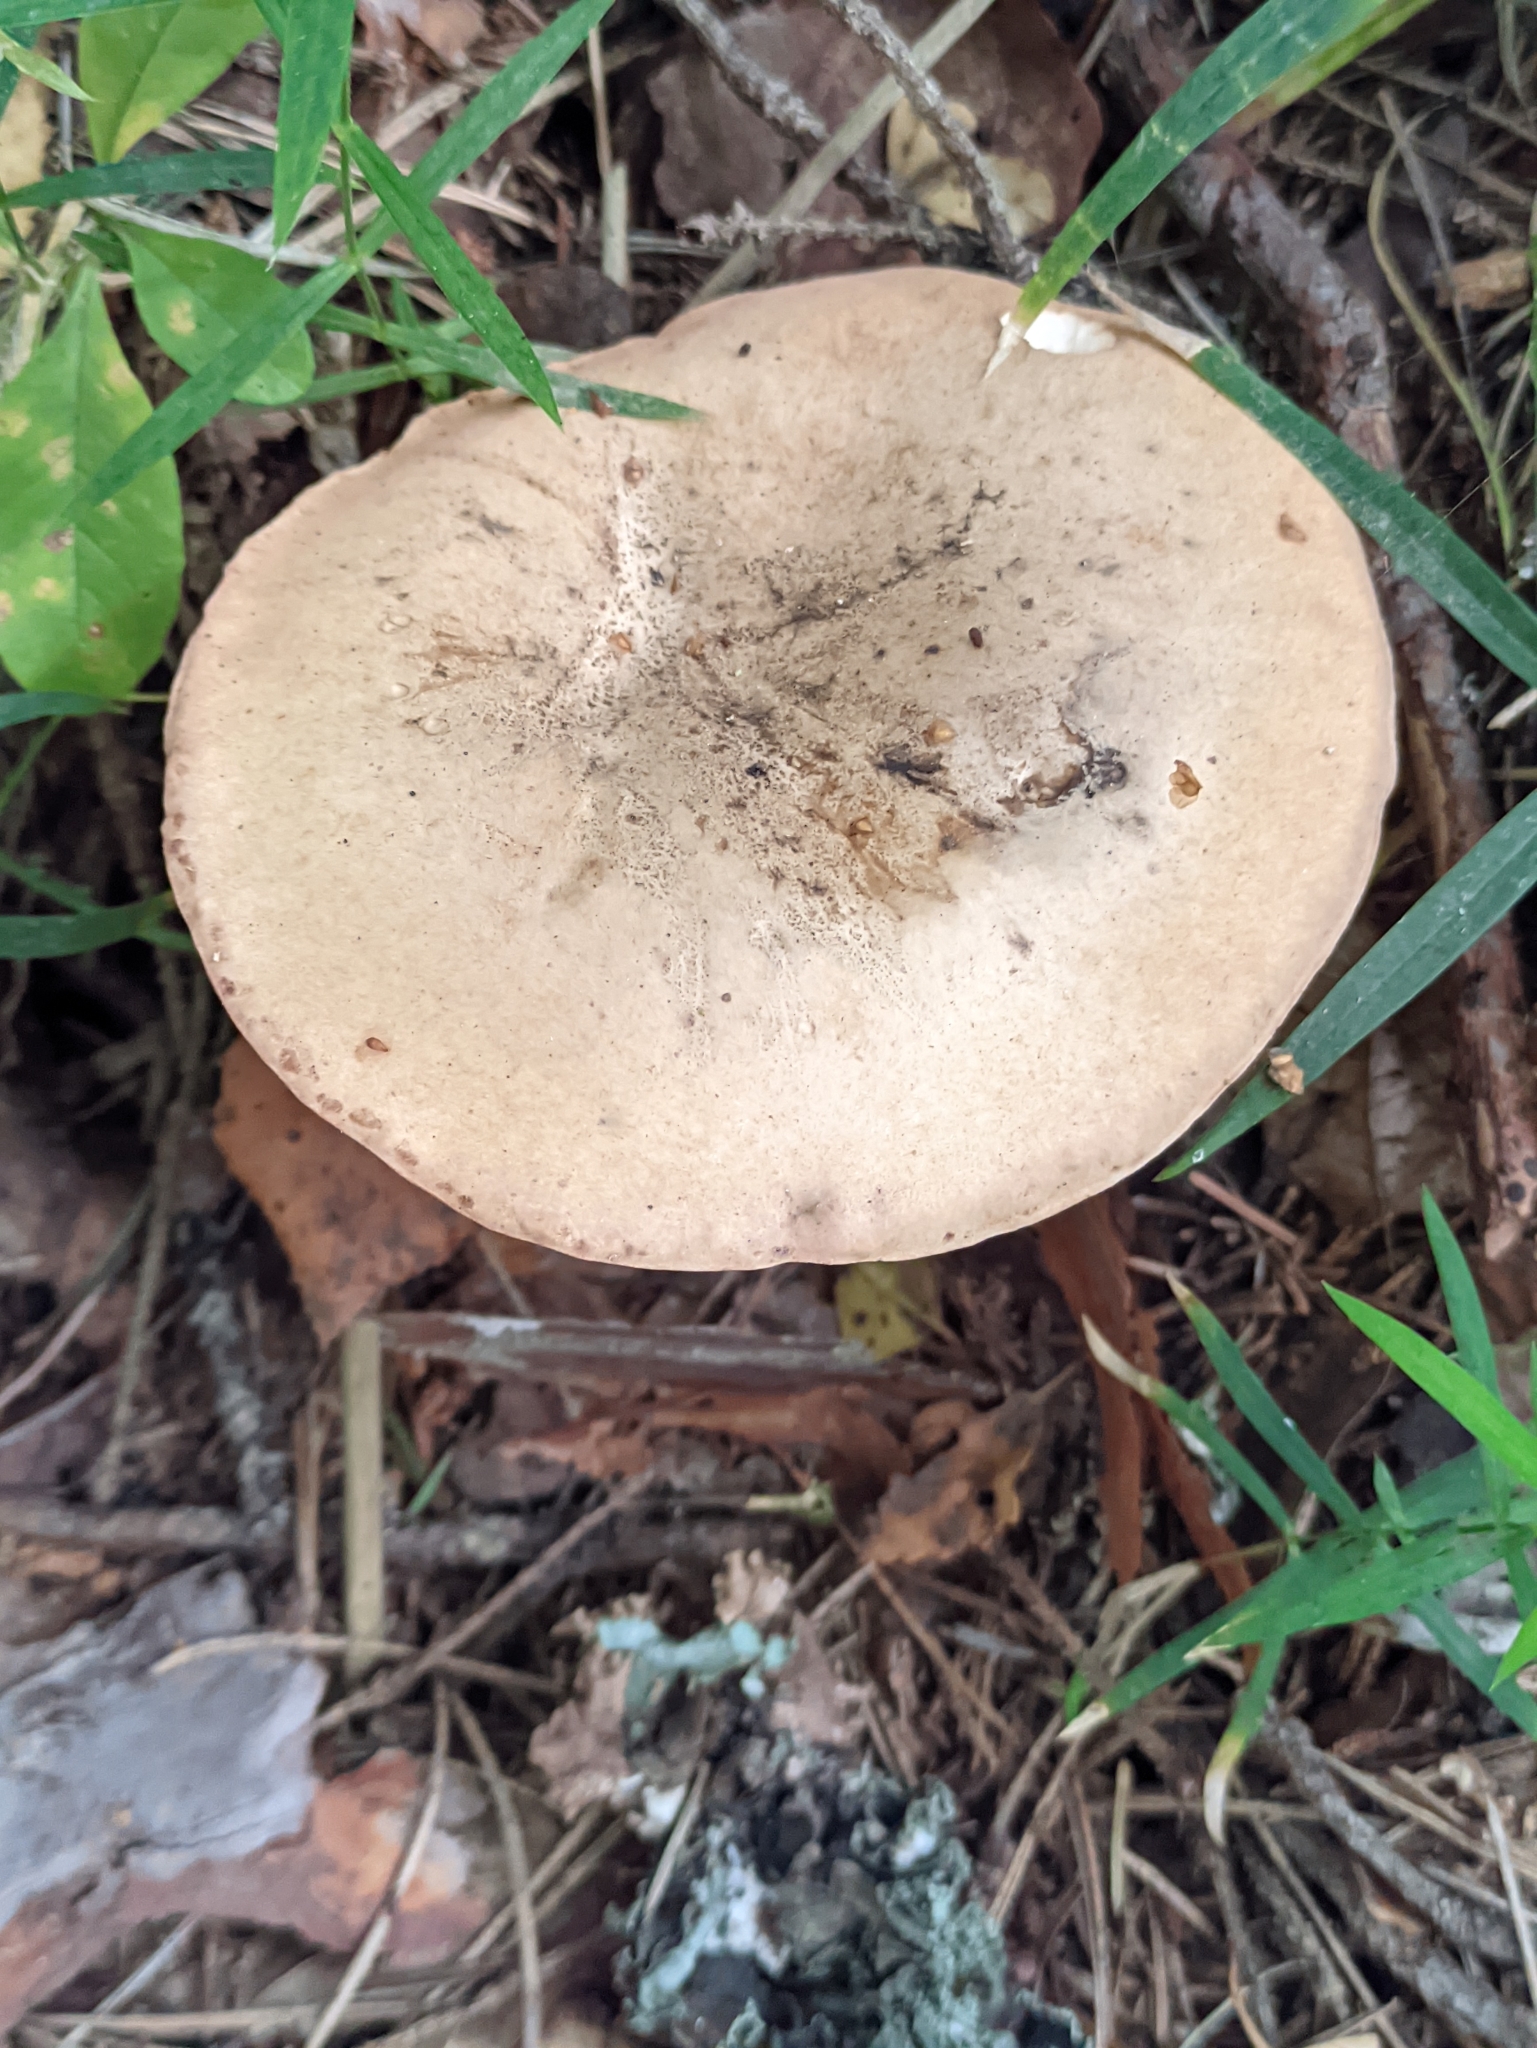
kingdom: Fungi
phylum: Basidiomycota
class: Agaricomycetes
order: Boletales
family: Boletaceae
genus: Tylopilus
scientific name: Tylopilus felleus
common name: Bitter bolete
